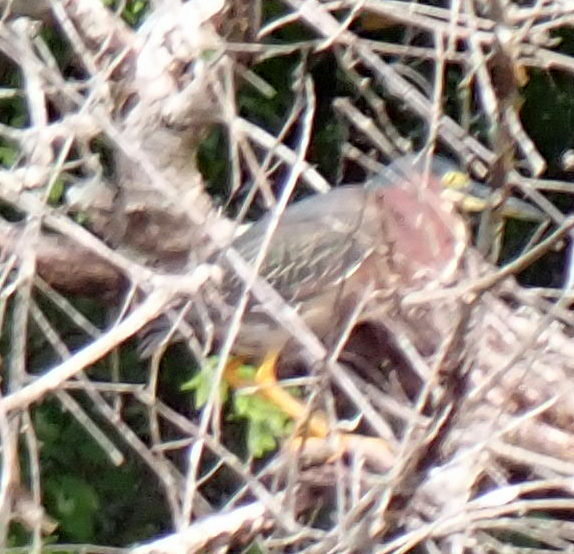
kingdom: Animalia
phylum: Chordata
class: Aves
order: Pelecaniformes
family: Ardeidae
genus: Butorides
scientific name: Butorides virescens
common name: Green heron
